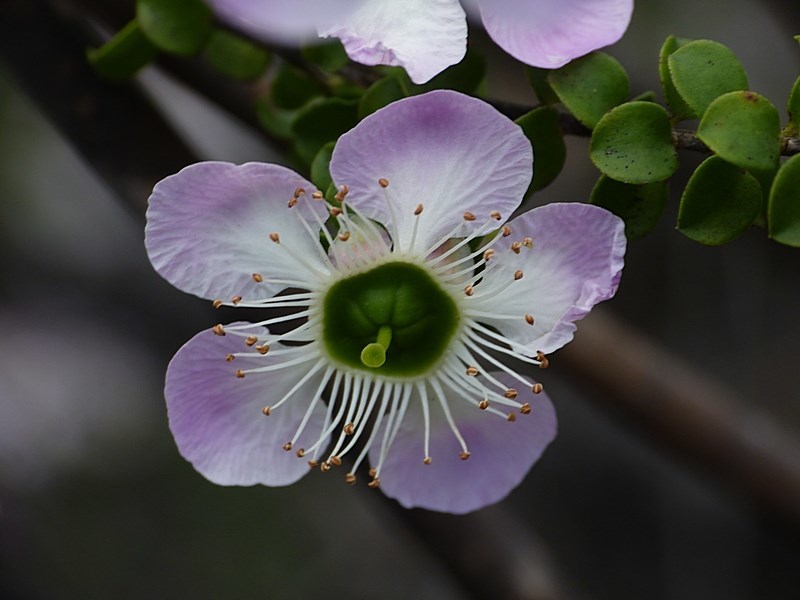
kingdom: Plantae
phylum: Tracheophyta
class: Magnoliopsida
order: Myrtales
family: Myrtaceae
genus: Leptospermum
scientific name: Leptospermum rotundifolium
